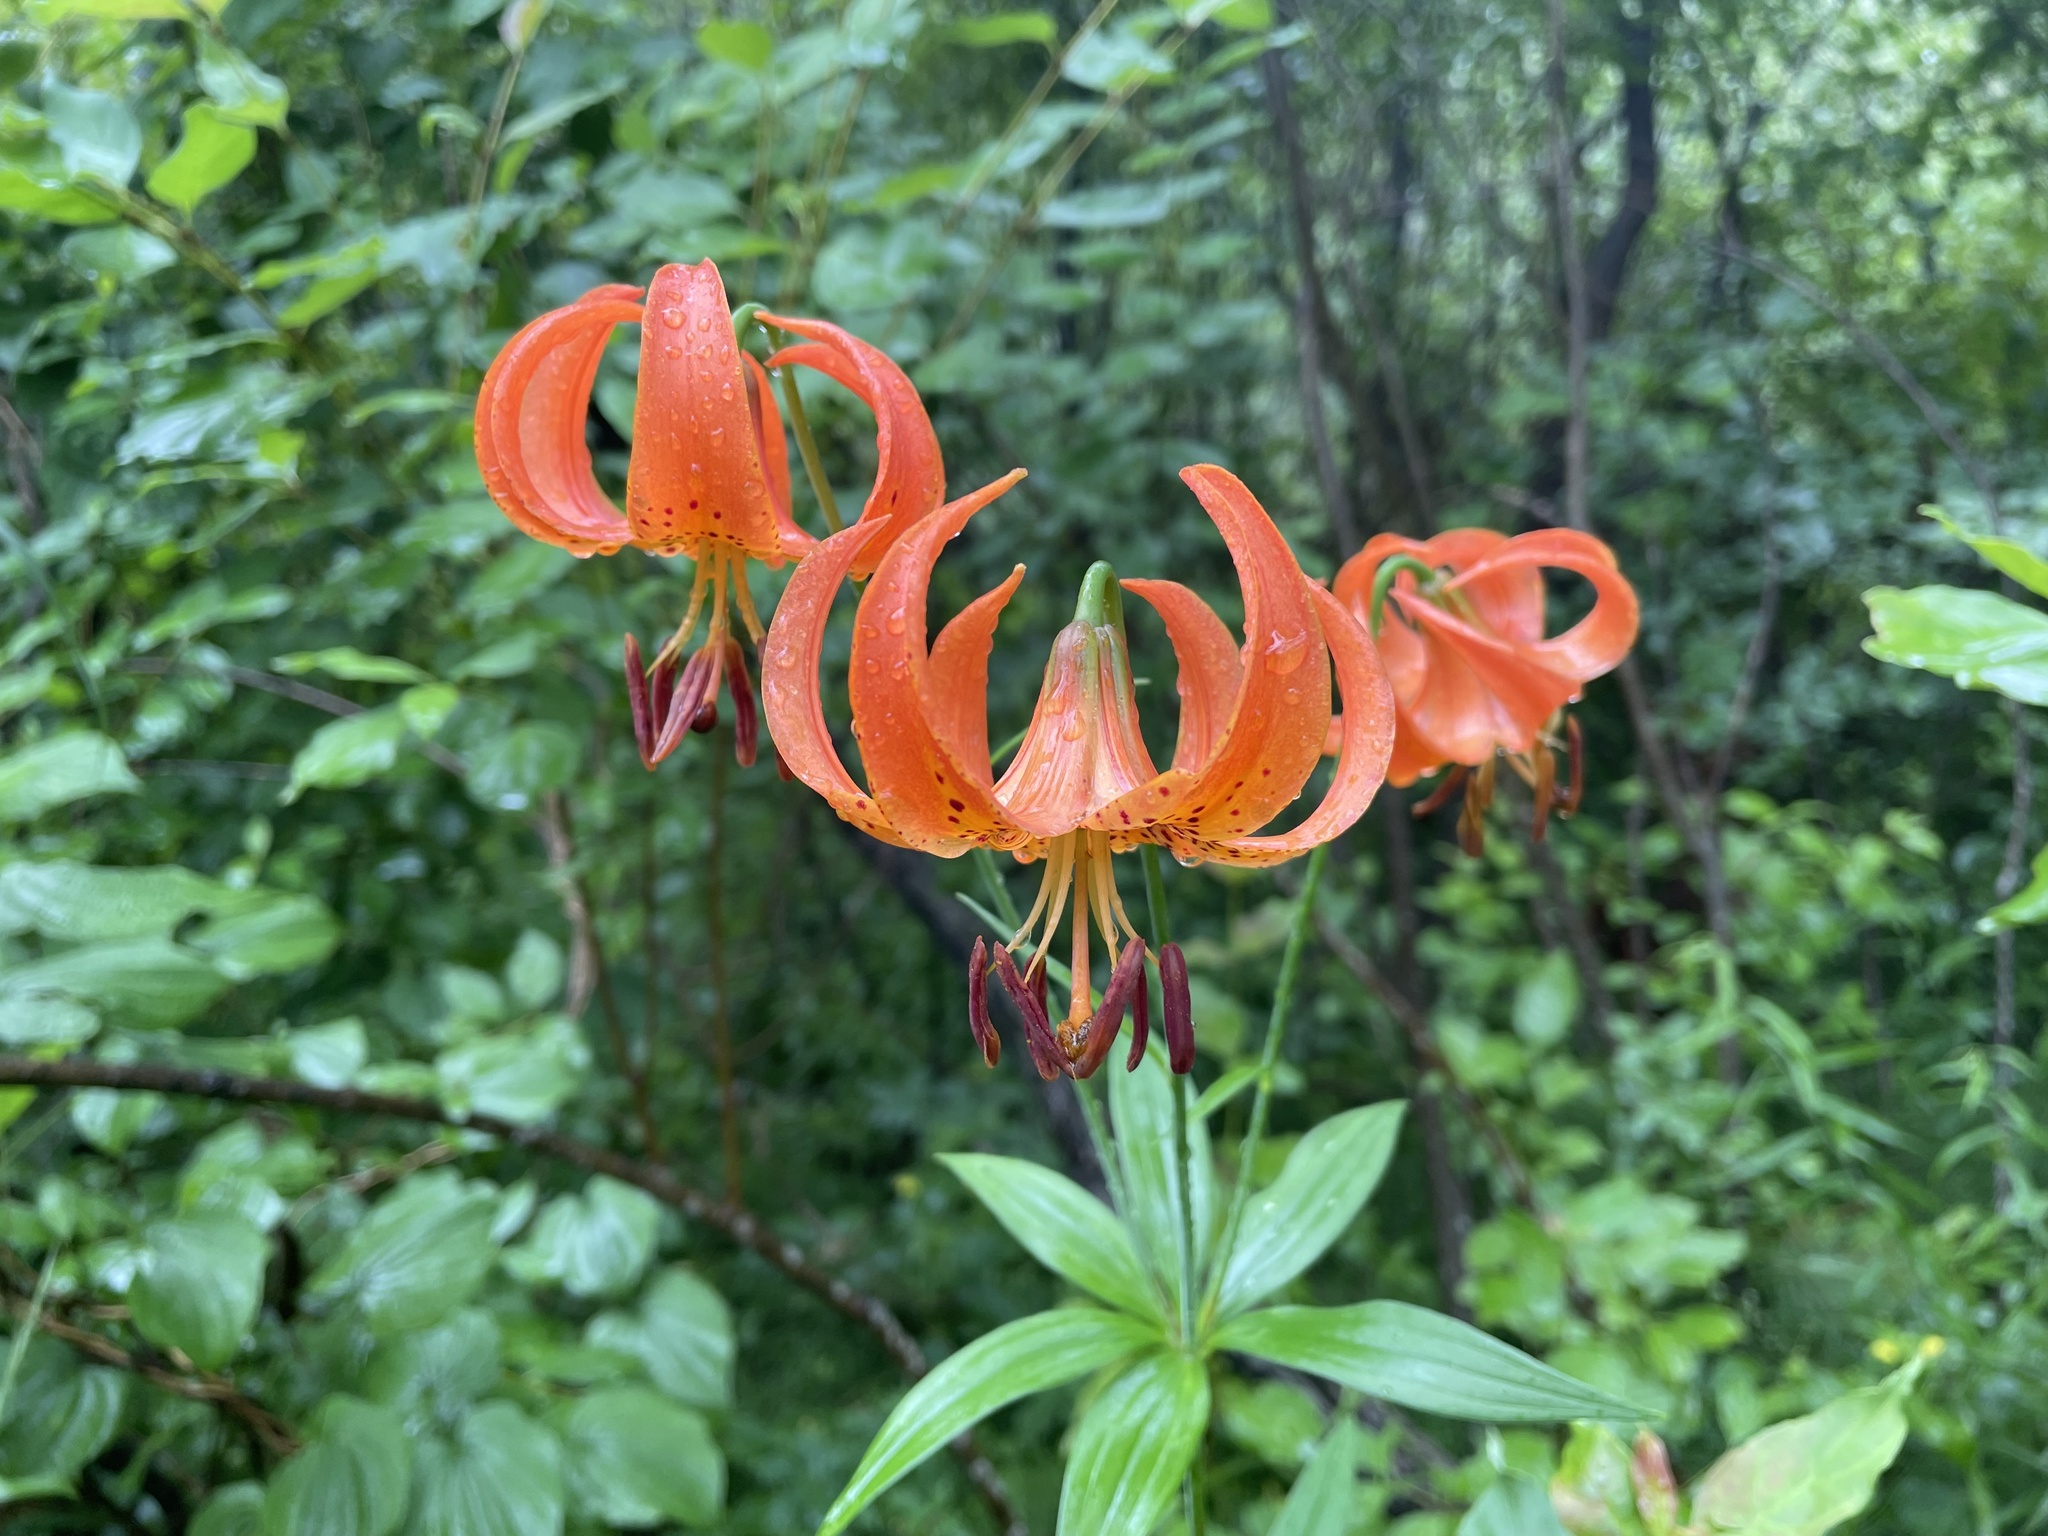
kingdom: Plantae
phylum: Tracheophyta
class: Liliopsida
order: Liliales
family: Liliaceae
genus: Lilium
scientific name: Lilium michiganense
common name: Michigan lily
